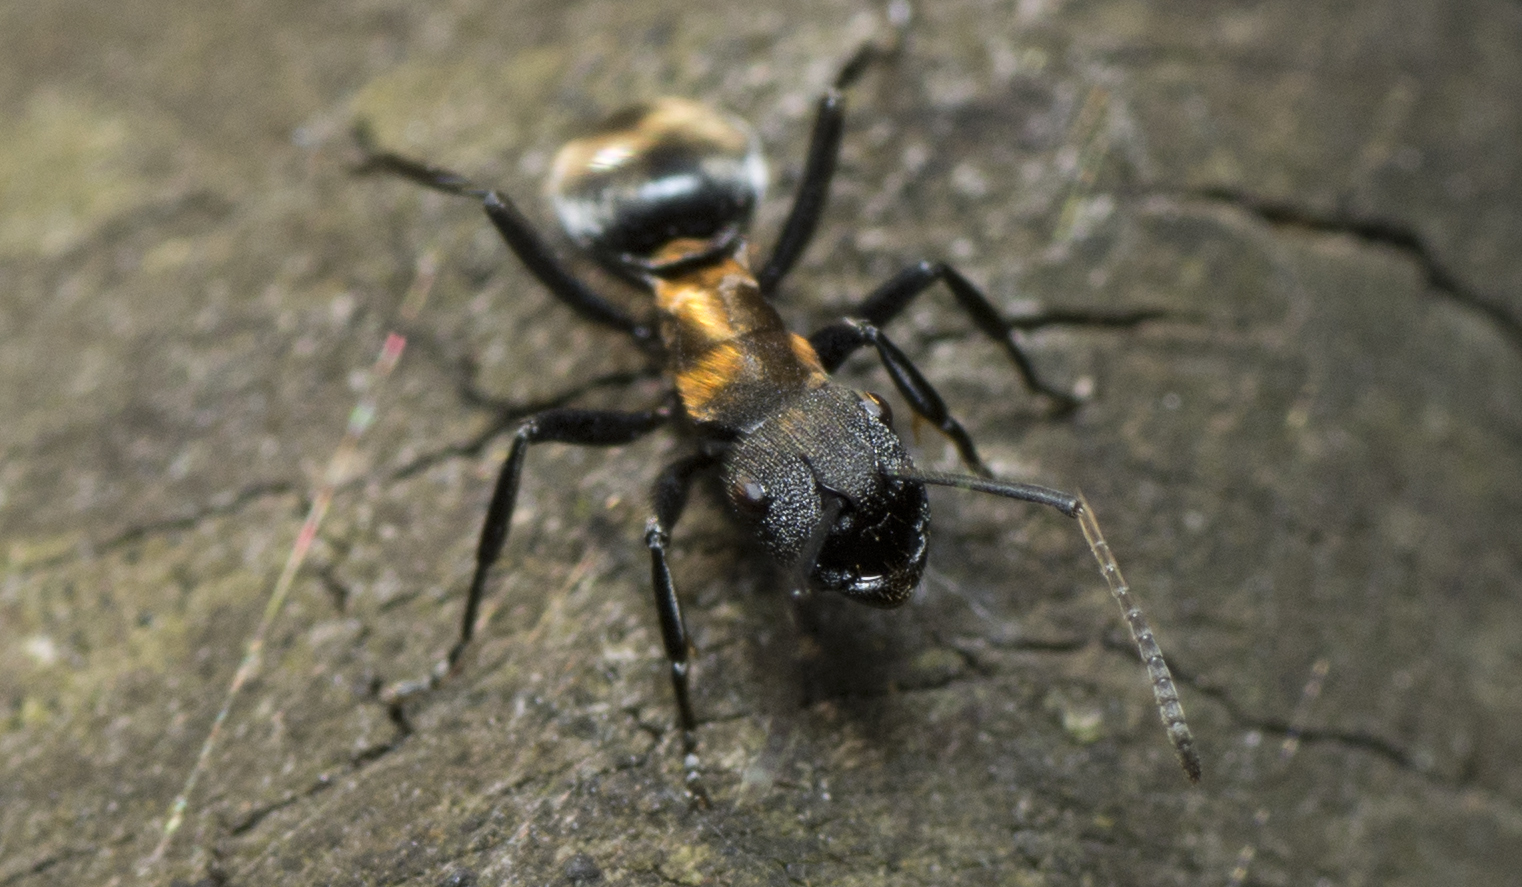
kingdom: Animalia
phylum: Arthropoda
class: Insecta
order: Hymenoptera
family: Formicidae
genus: Polyrhachis
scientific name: Polyrhachis ornata
